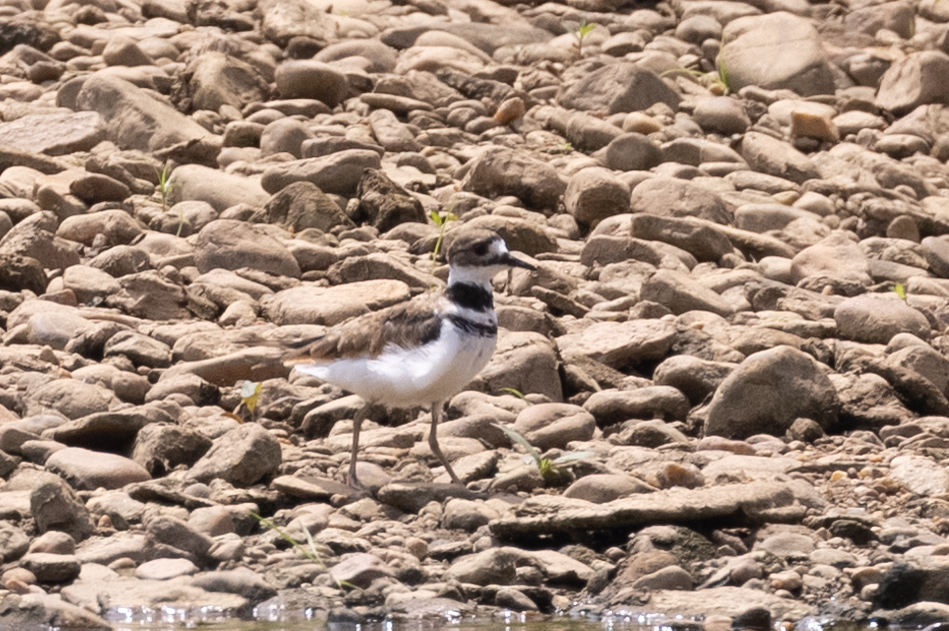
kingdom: Animalia
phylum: Chordata
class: Aves
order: Charadriiformes
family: Charadriidae
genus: Charadrius
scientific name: Charadrius vociferus
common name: Killdeer
